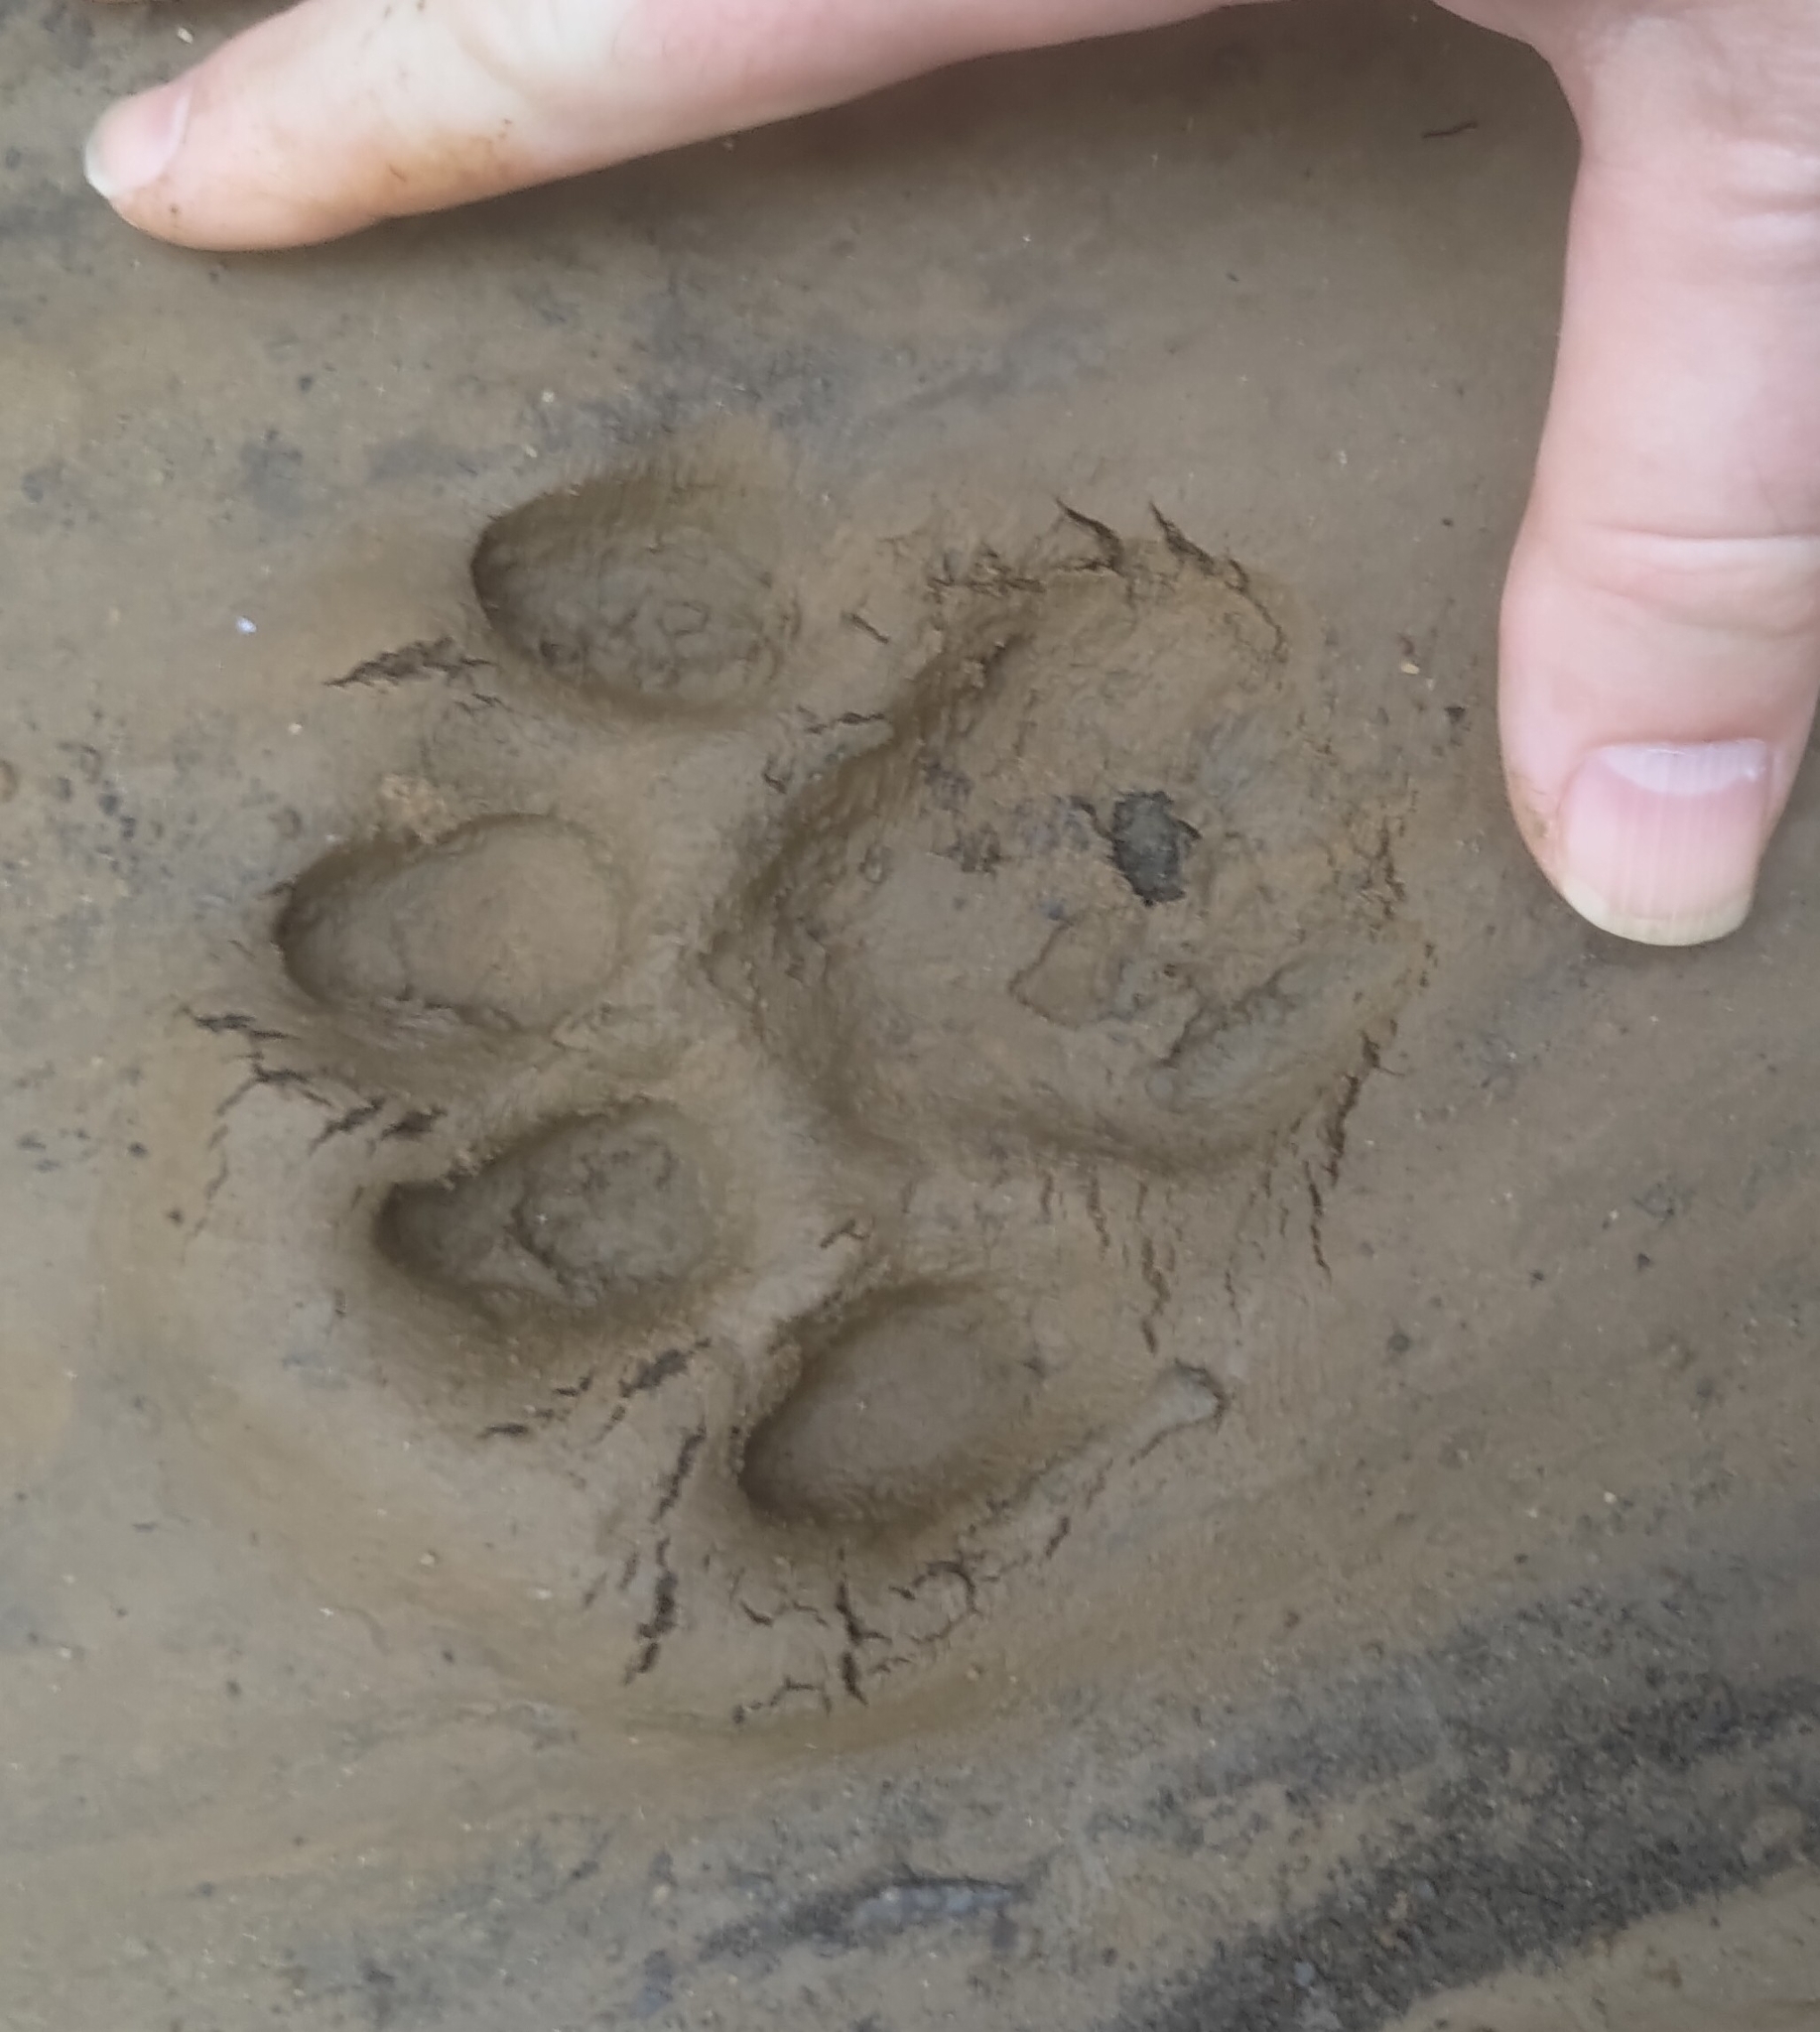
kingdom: Animalia
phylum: Chordata
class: Mammalia
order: Carnivora
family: Felidae
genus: Puma
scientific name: Puma concolor
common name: Puma
